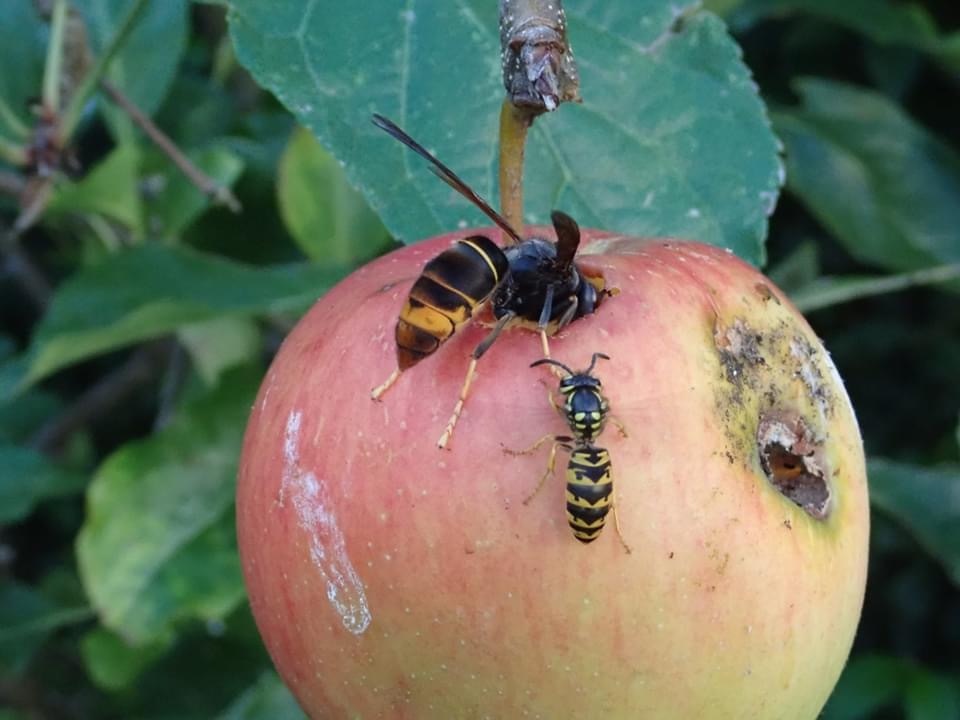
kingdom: Animalia
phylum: Arthropoda
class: Insecta
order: Hymenoptera
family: Vespidae
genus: Vespa
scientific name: Vespa velutina
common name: Asian hornet
